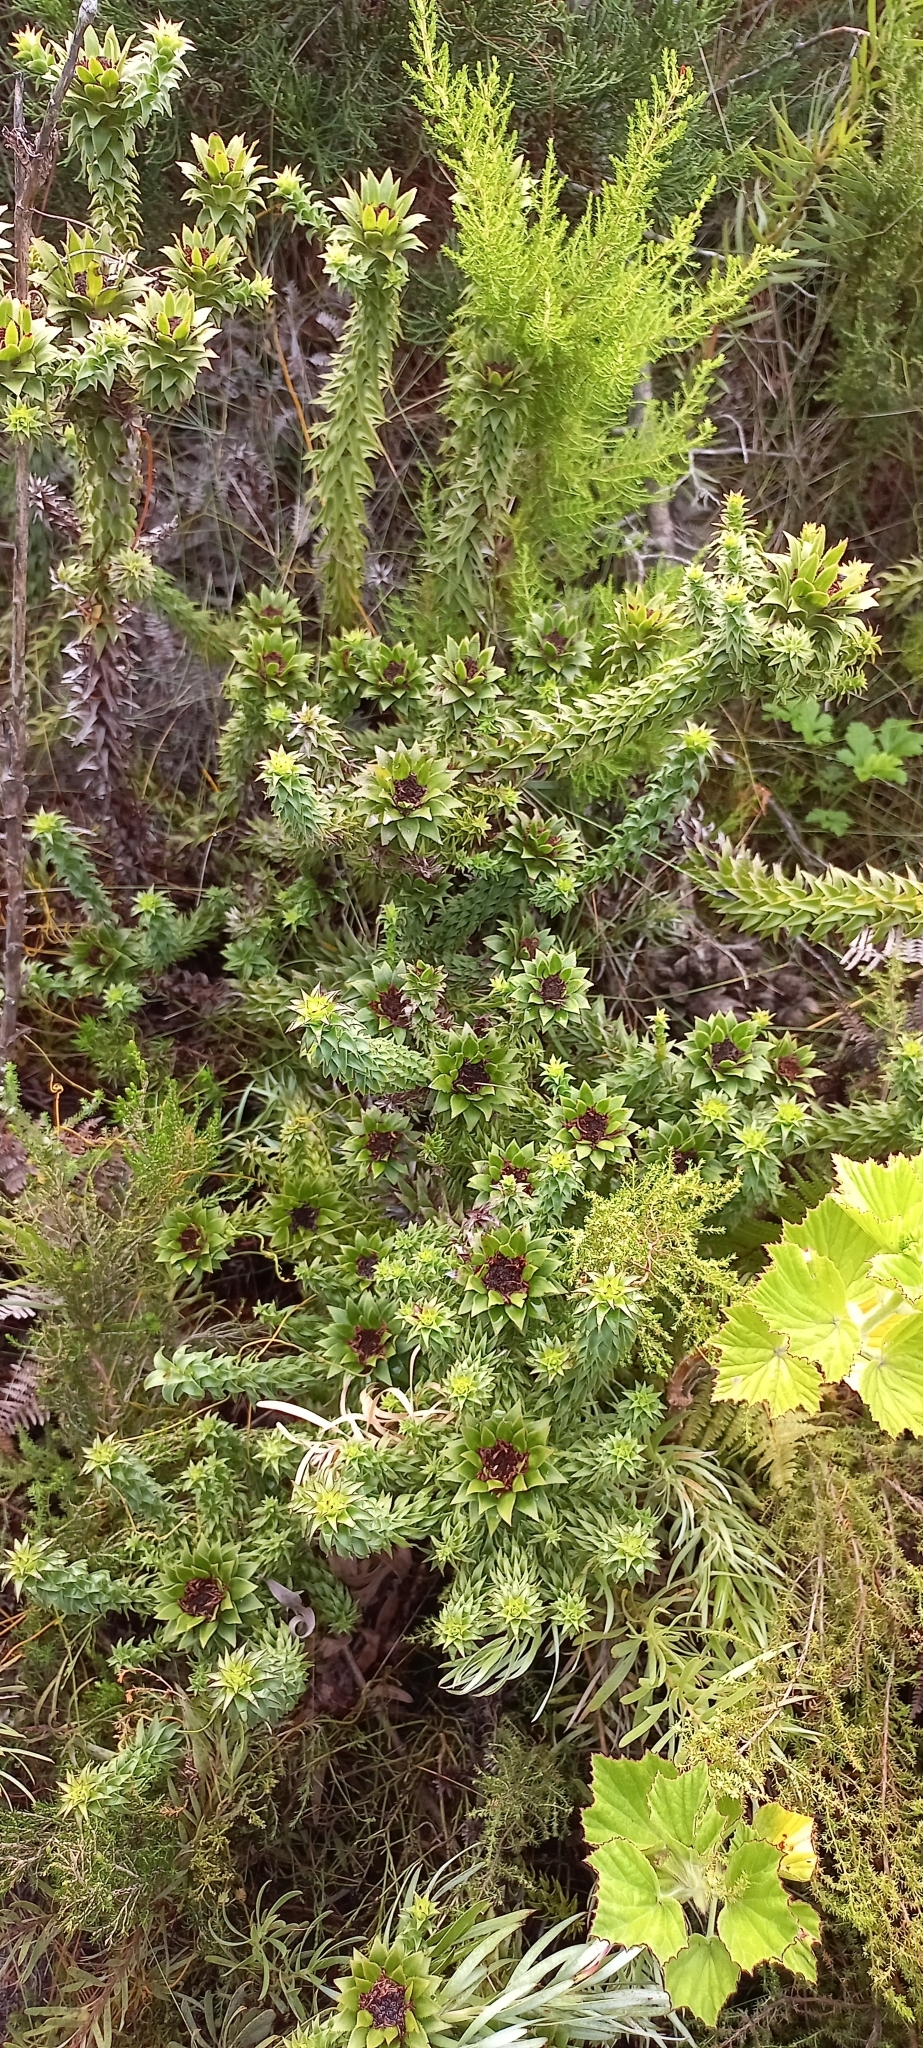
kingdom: Plantae
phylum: Tracheophyta
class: Magnoliopsida
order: Asterales
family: Asteraceae
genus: Oedera
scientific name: Oedera imbricata
